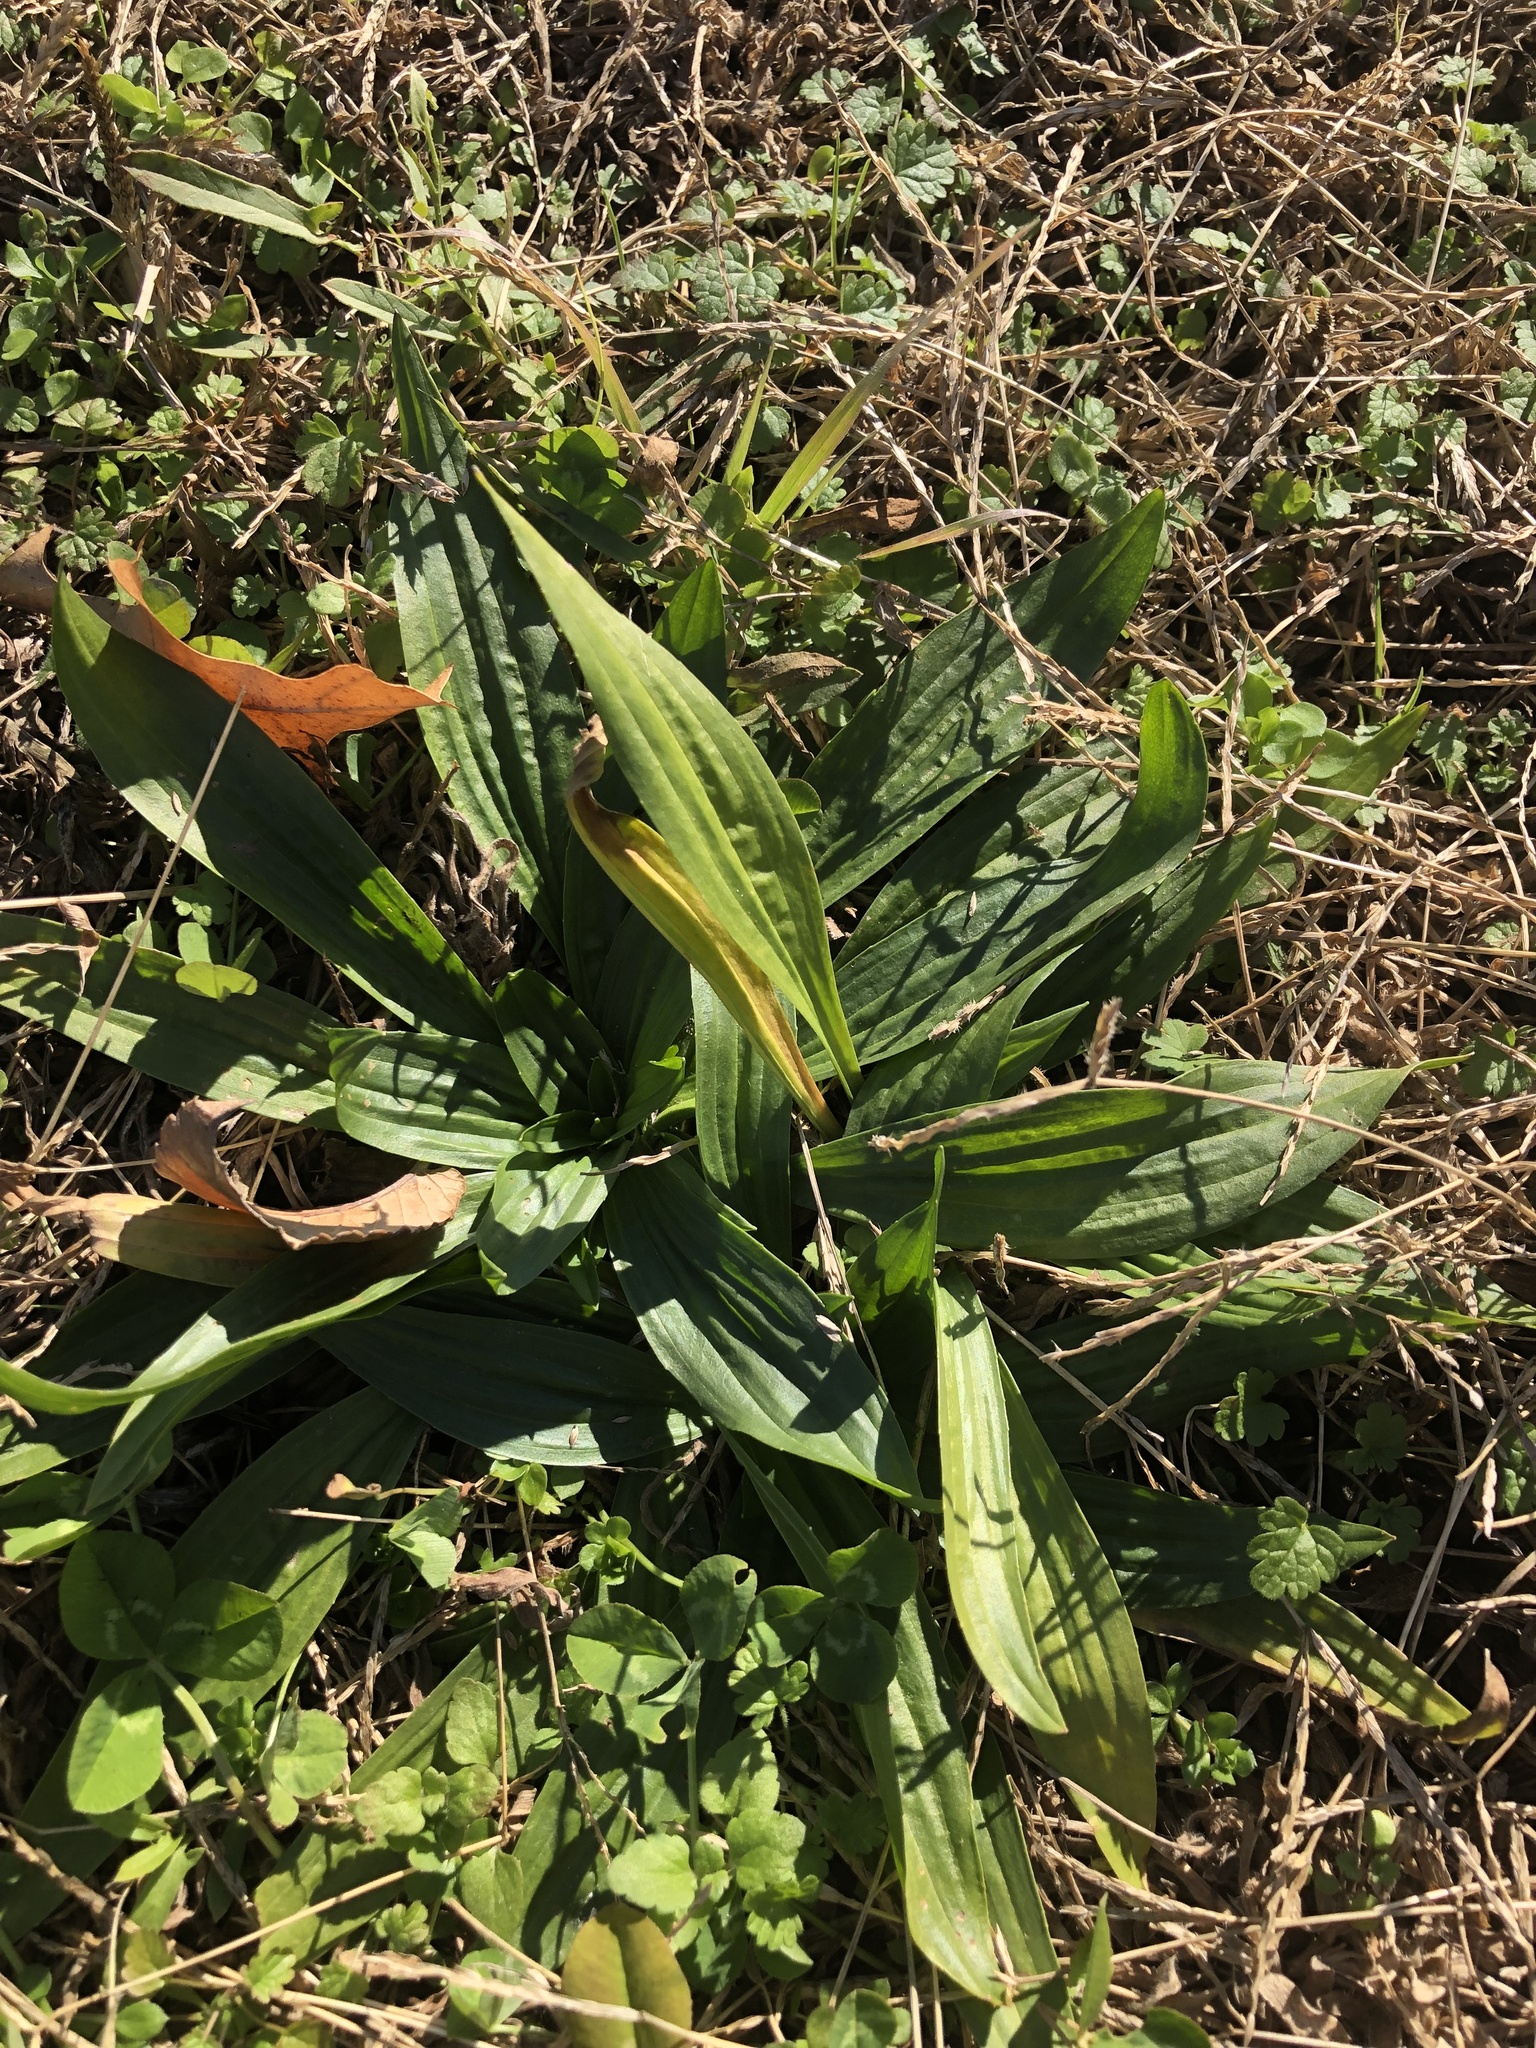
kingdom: Plantae
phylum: Tracheophyta
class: Magnoliopsida
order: Lamiales
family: Plantaginaceae
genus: Plantago
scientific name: Plantago lanceolata
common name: Ribwort plantain
